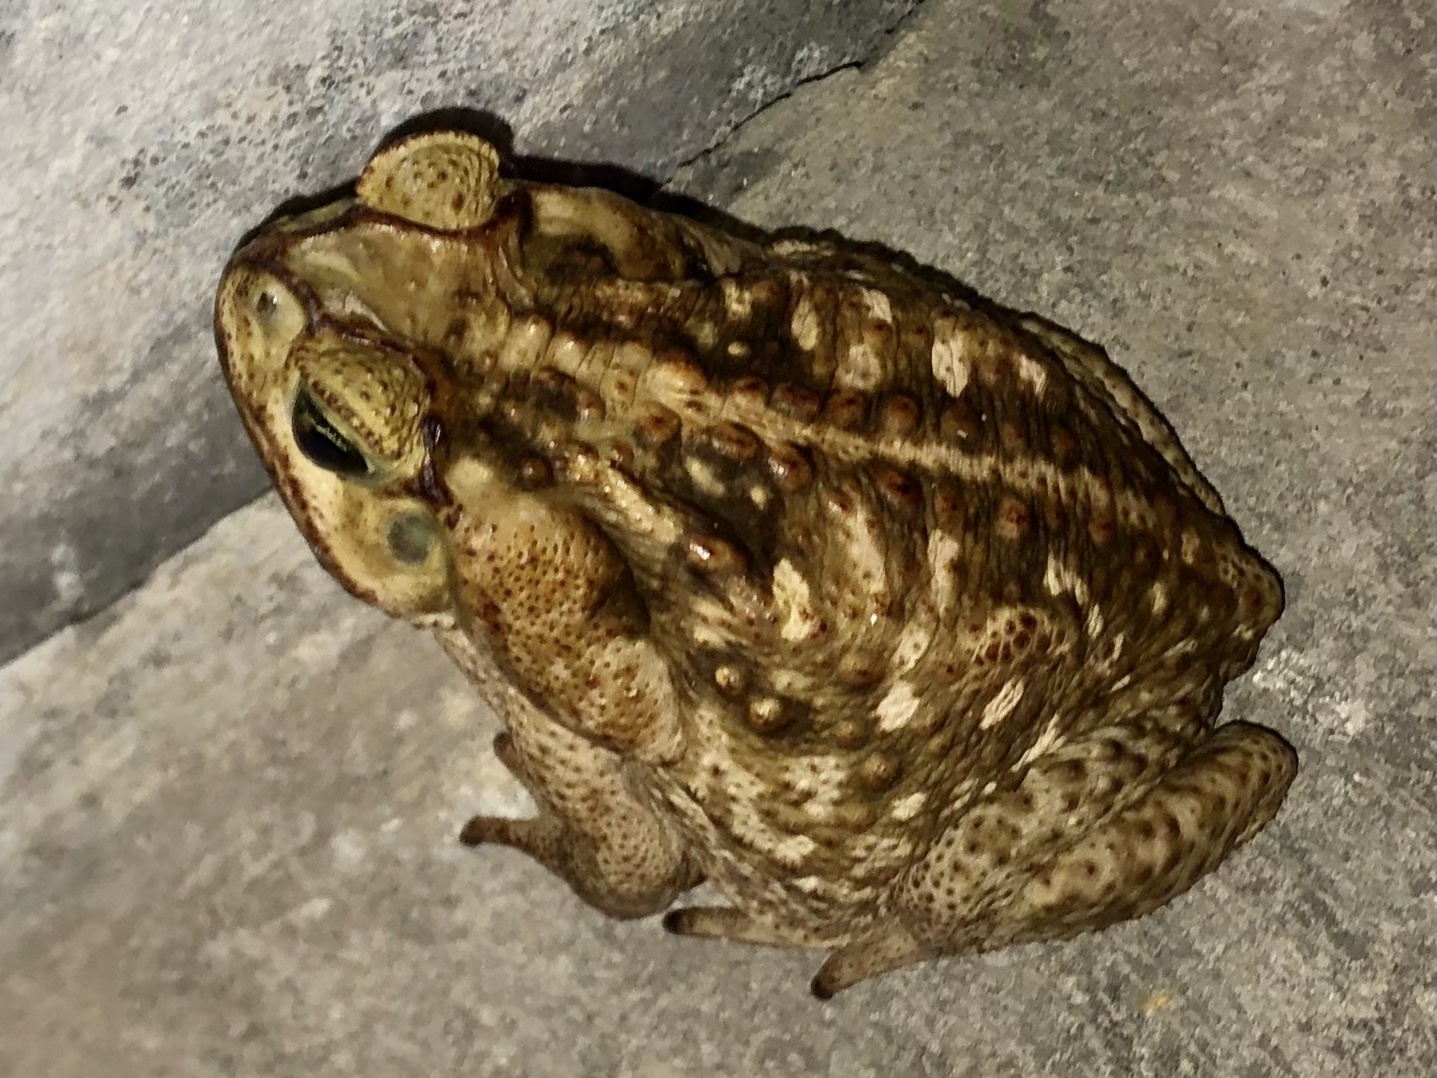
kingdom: Animalia
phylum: Chordata
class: Amphibia
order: Anura
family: Bufonidae
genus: Rhinella
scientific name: Rhinella horribilis
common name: Mesoamerican cane toad
